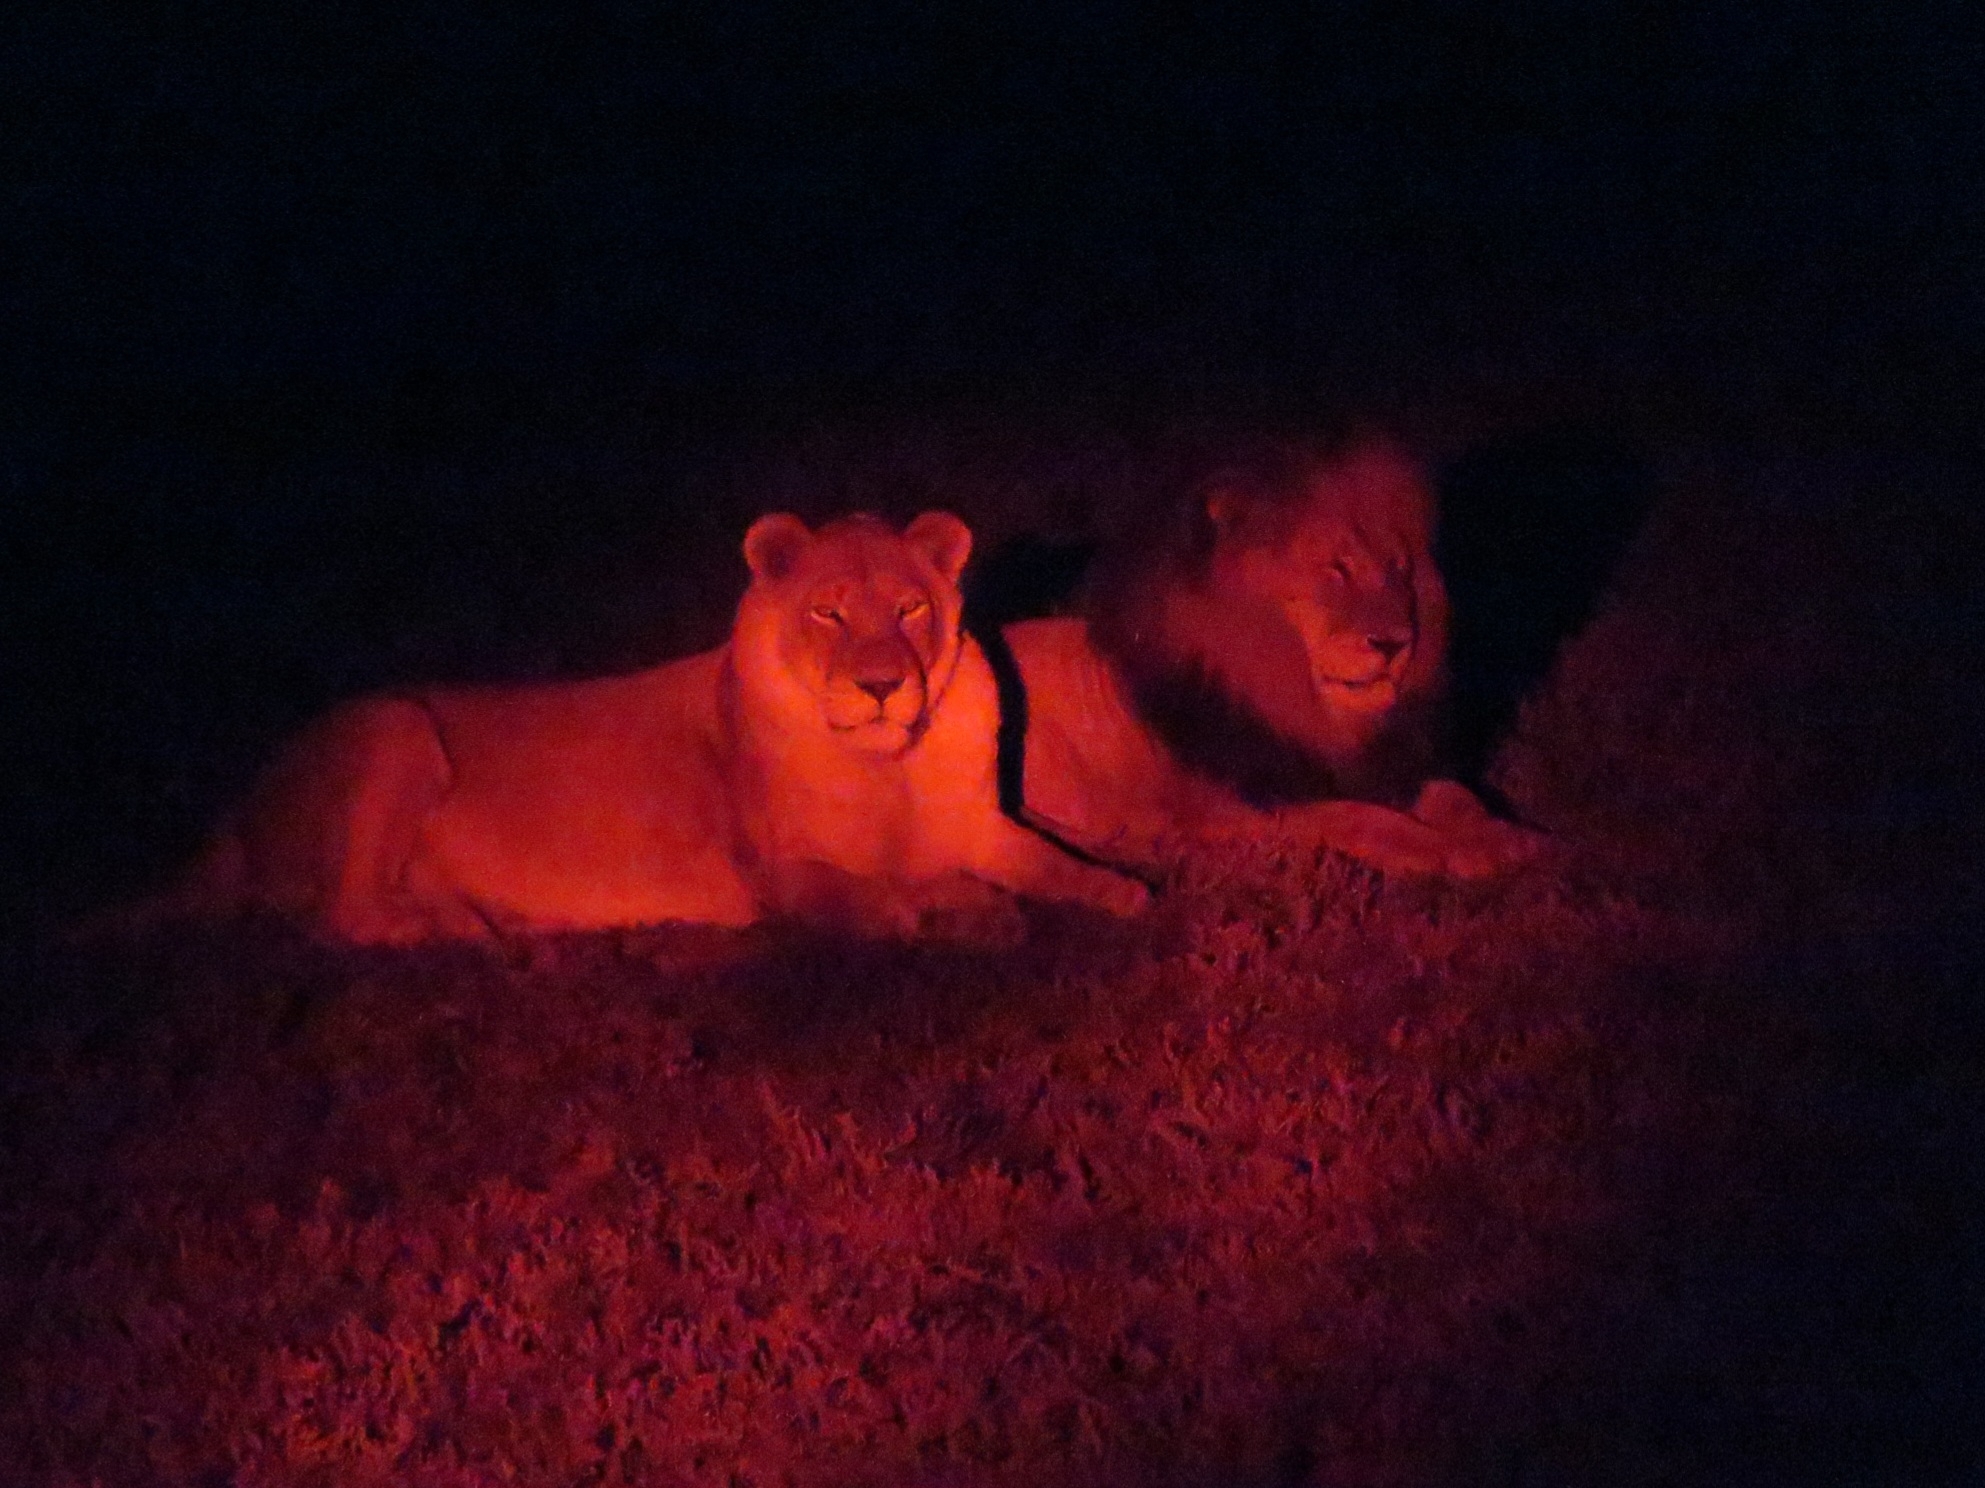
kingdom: Animalia
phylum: Chordata
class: Mammalia
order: Carnivora
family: Felidae
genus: Panthera
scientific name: Panthera leo
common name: Lion
